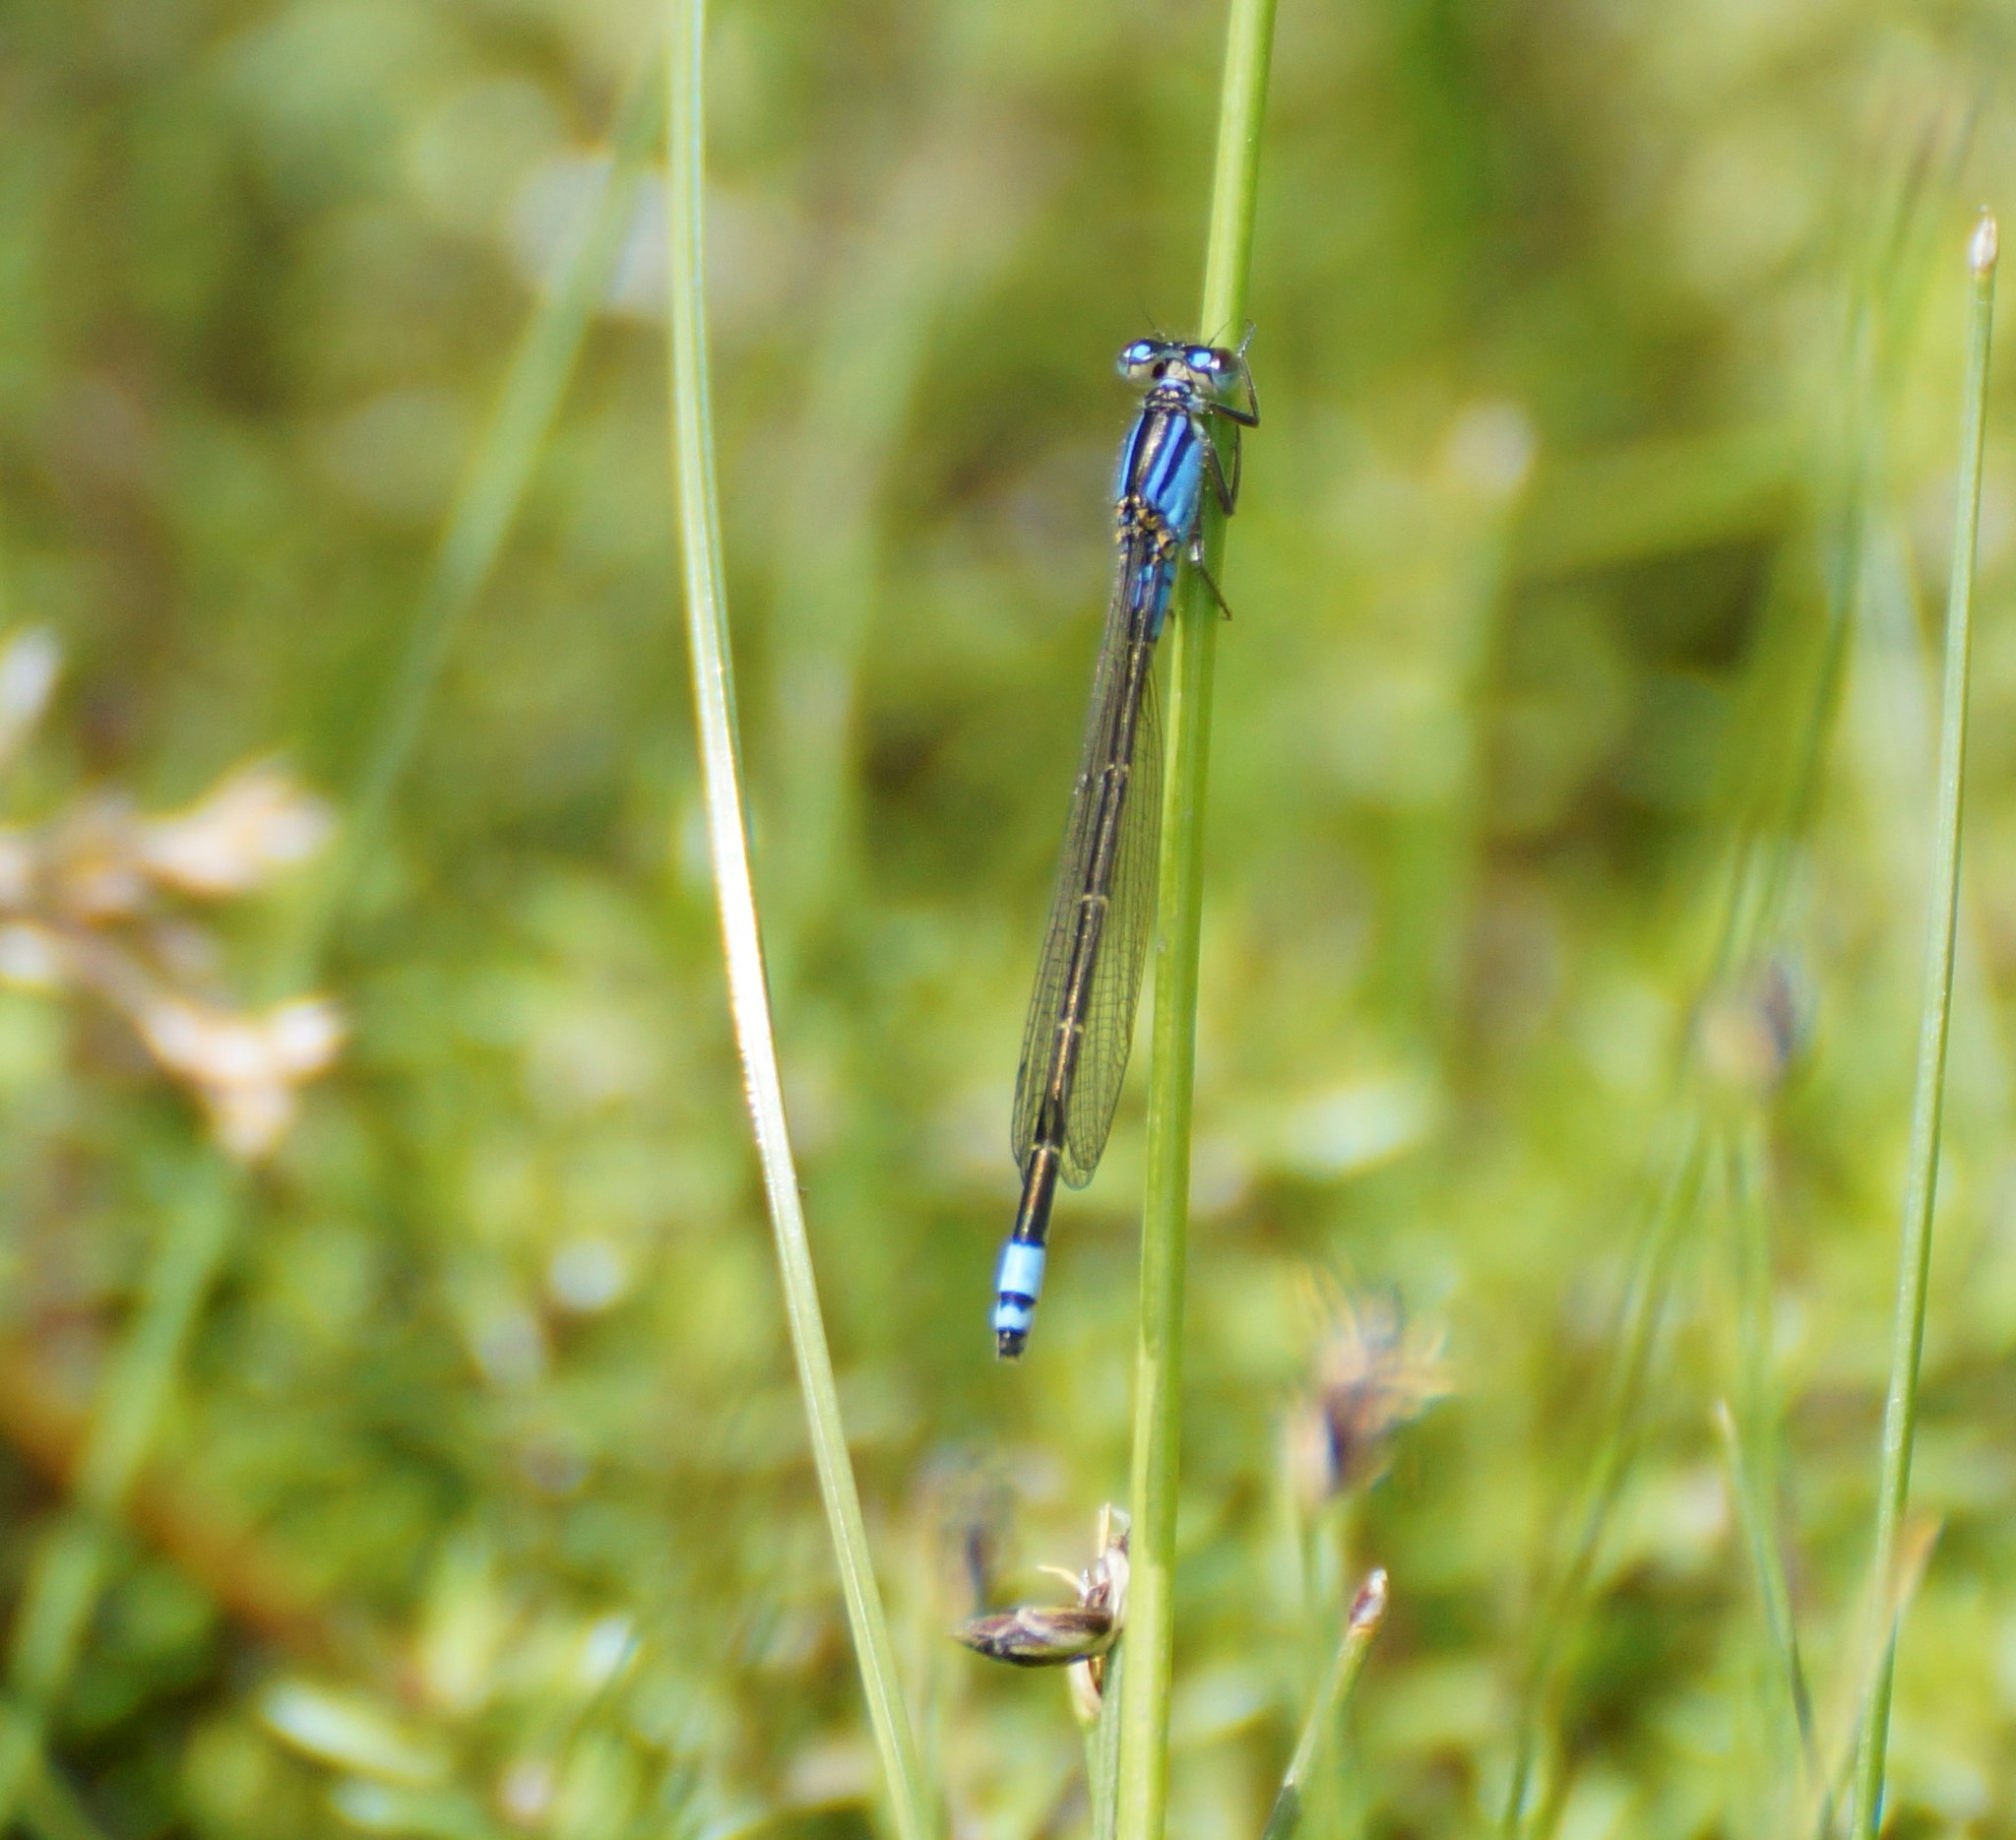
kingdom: Animalia
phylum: Arthropoda
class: Insecta
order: Odonata
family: Coenagrionidae
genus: Ischnura
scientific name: Ischnura heterosticta
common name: Common bluetail
